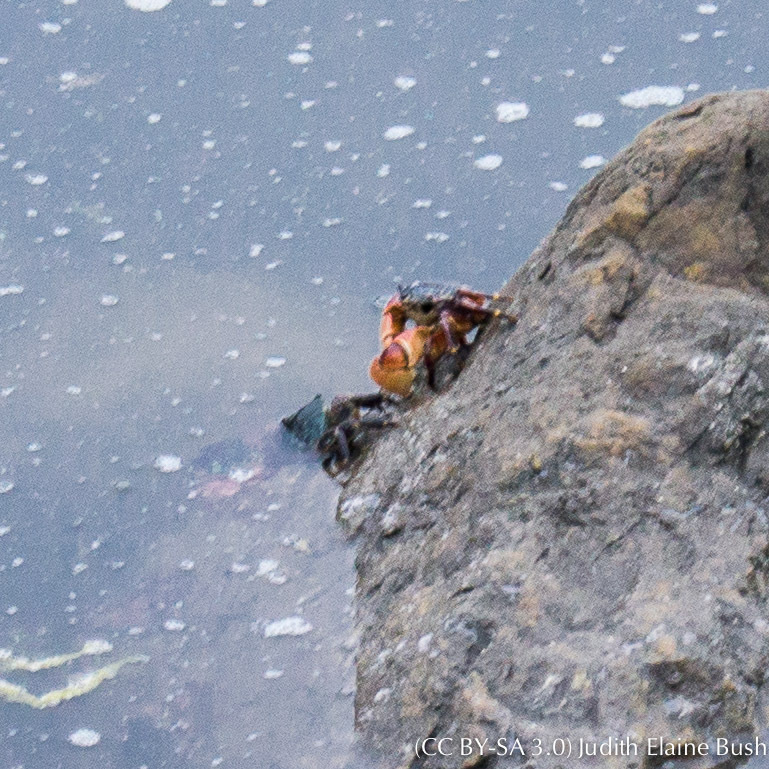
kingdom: Animalia
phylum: Arthropoda
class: Malacostraca
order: Decapoda
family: Grapsidae
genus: Pachygrapsus
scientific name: Pachygrapsus crassipes
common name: Striped shore crab
